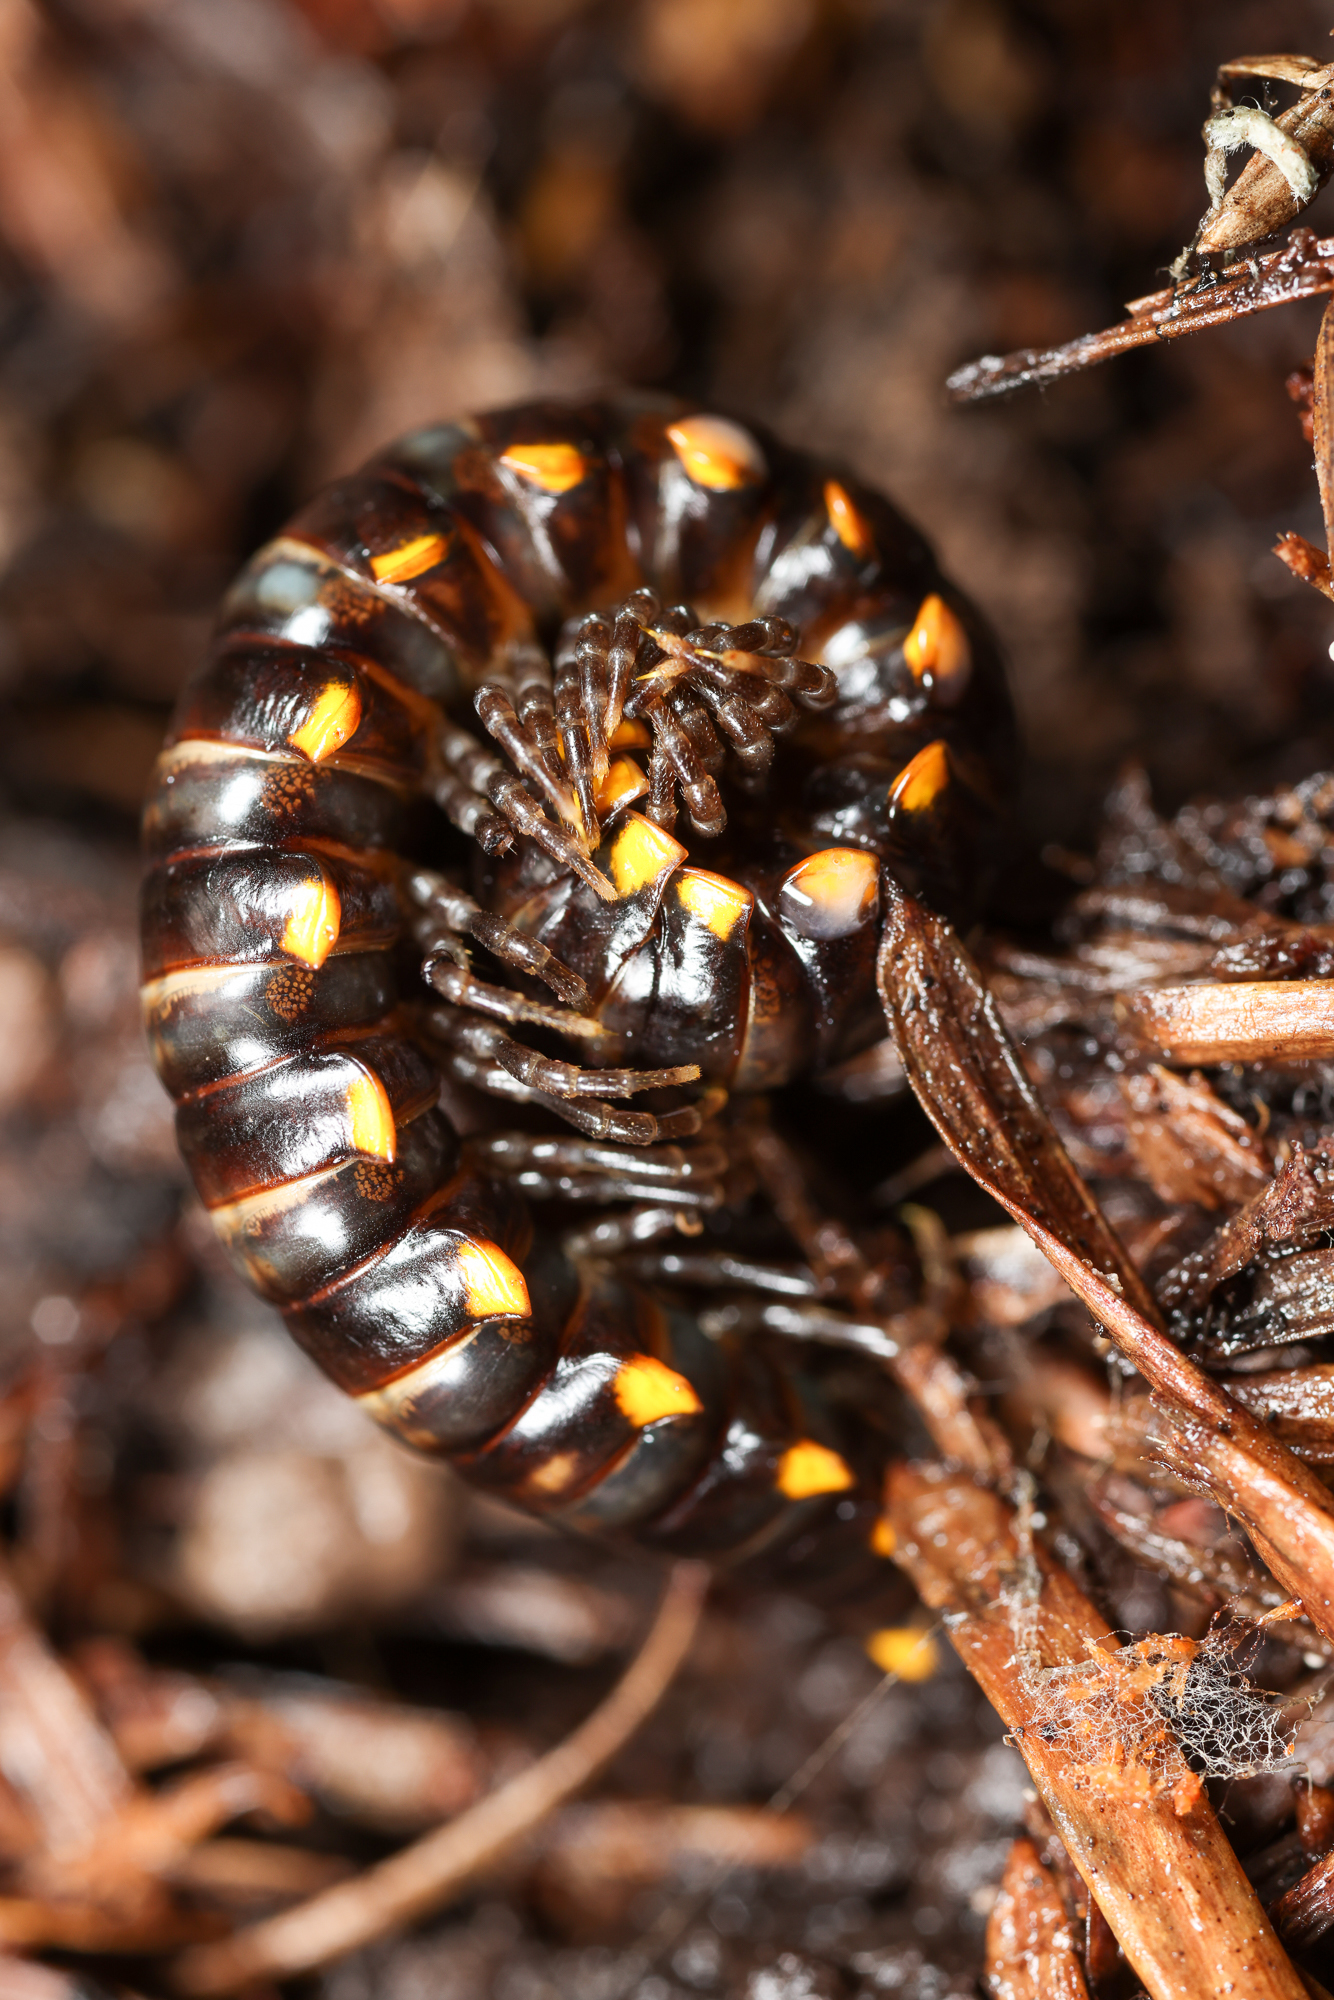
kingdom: Animalia
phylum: Arthropoda
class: Diplopoda
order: Polydesmida
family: Xystodesmidae
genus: Harpaphe
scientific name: Harpaphe haydeniana
